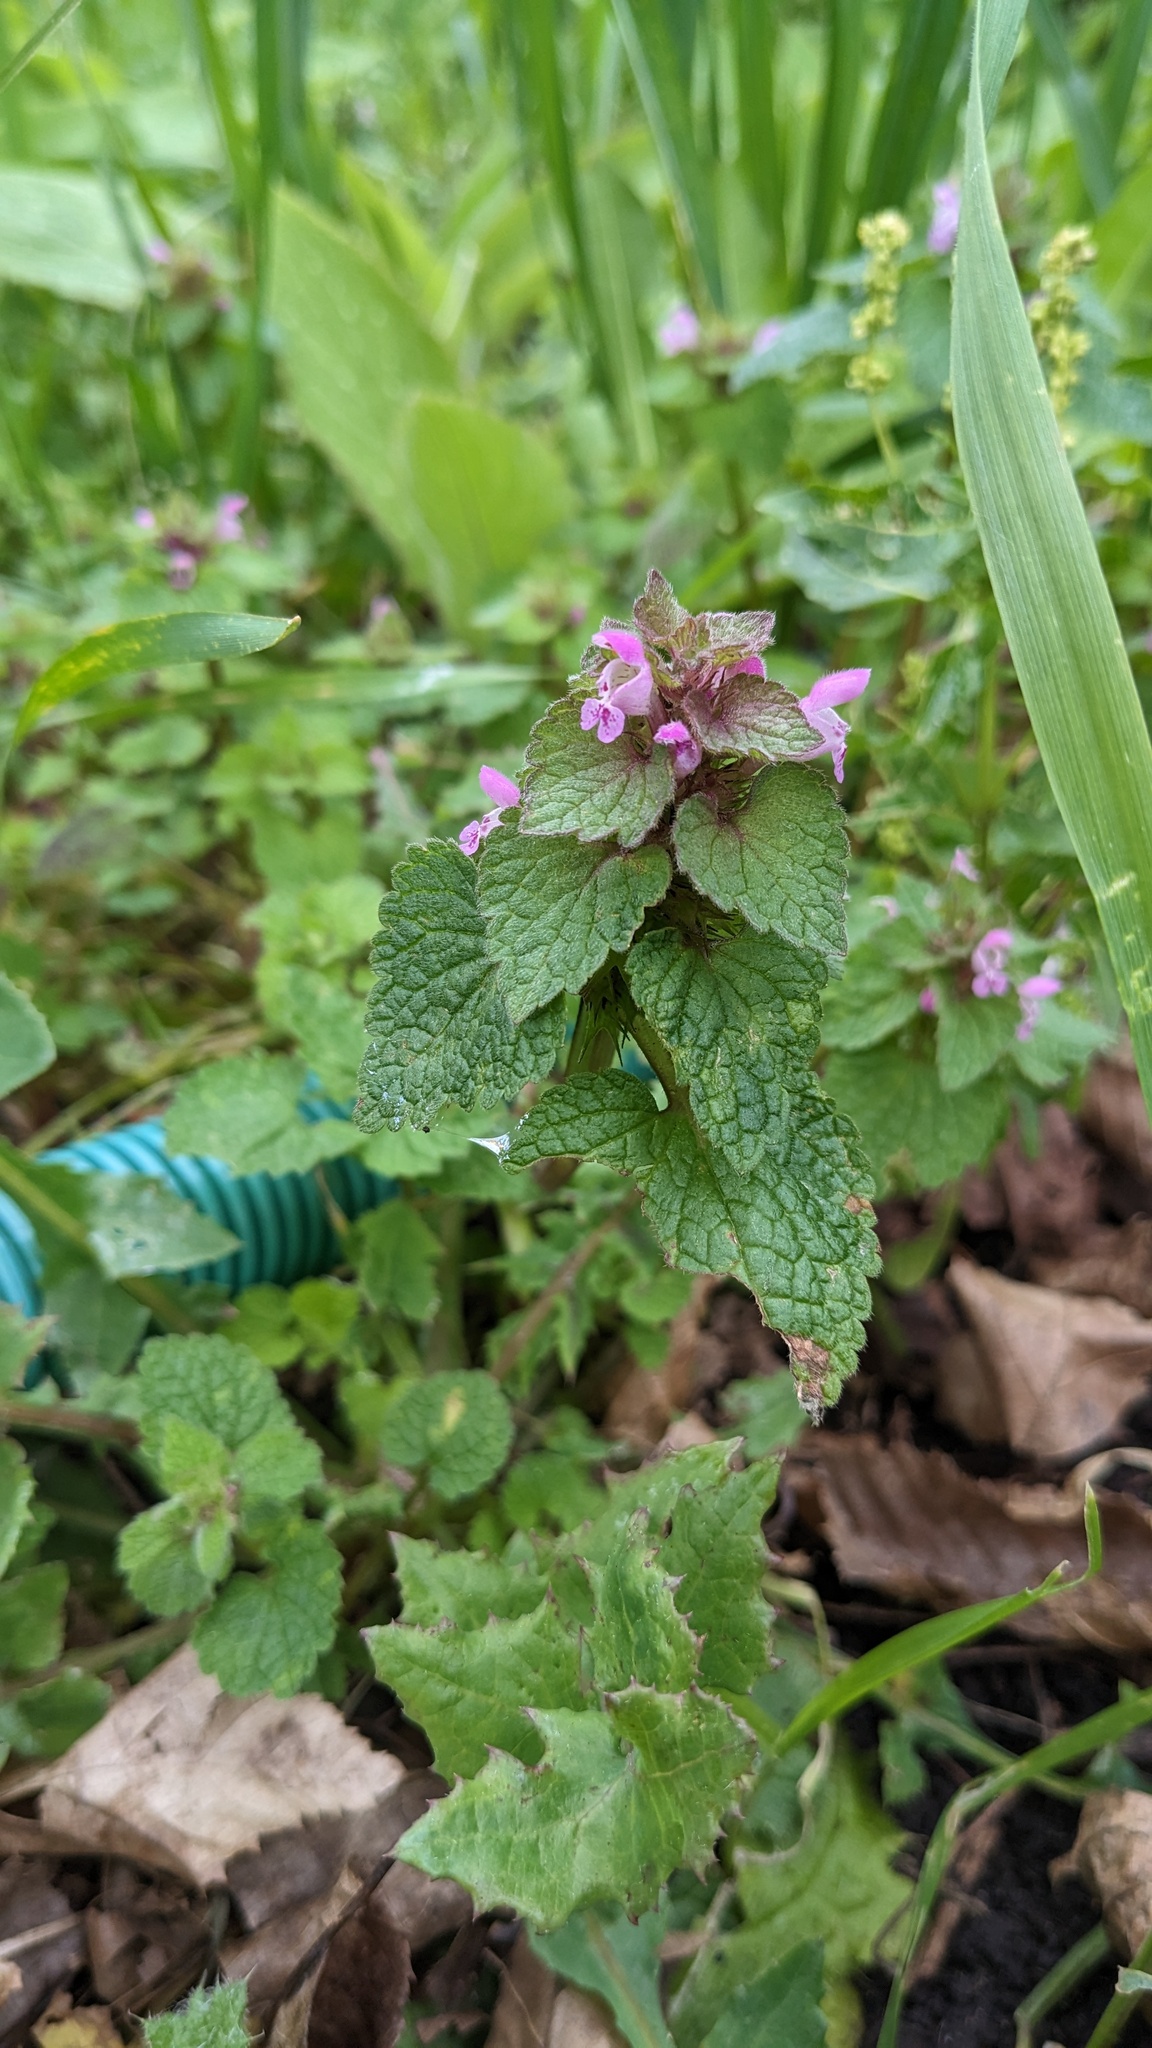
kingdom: Plantae
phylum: Tracheophyta
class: Magnoliopsida
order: Lamiales
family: Lamiaceae
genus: Lamium
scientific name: Lamium purpureum
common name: Red dead-nettle
